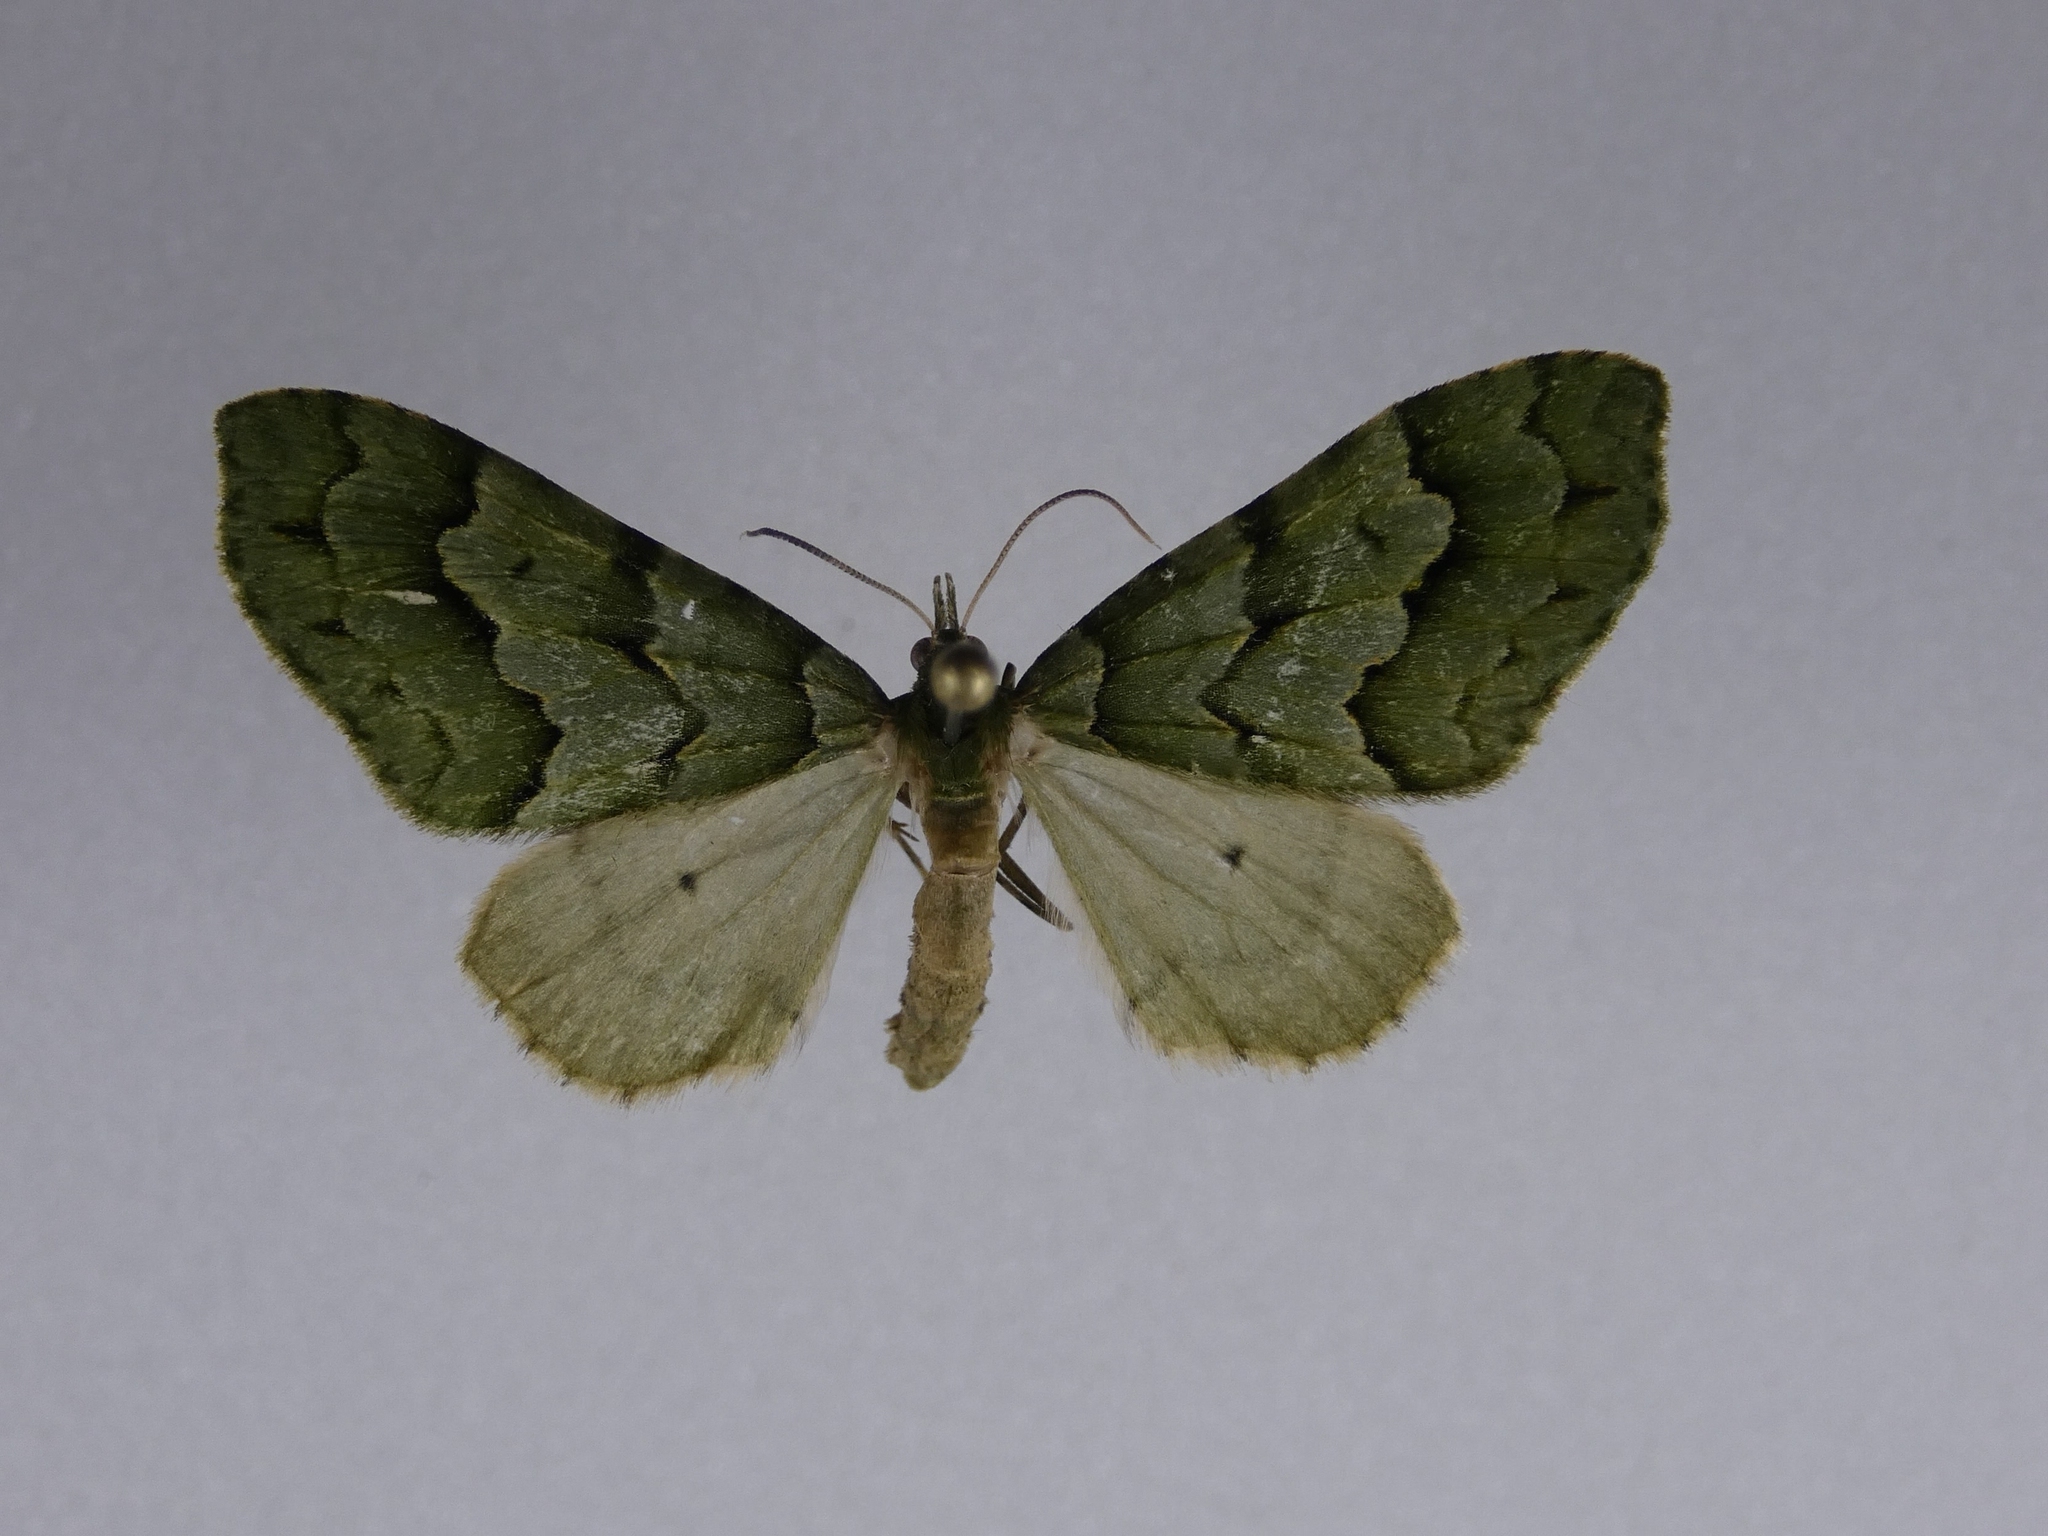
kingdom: Animalia
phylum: Arthropoda
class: Insecta
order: Lepidoptera
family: Geometridae
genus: Tatosoma
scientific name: Tatosoma lestevata
